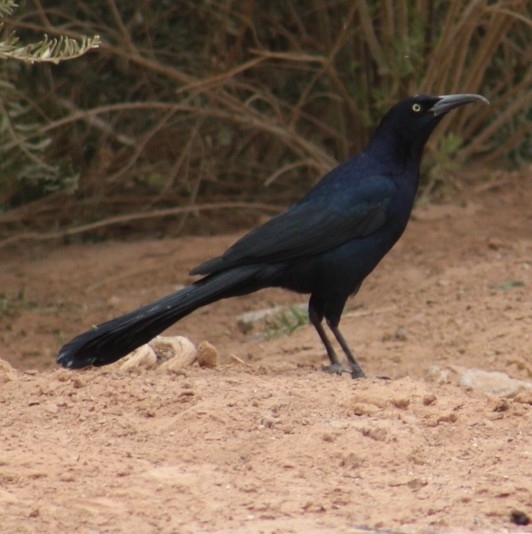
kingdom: Animalia
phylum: Chordata
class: Aves
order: Passeriformes
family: Icteridae
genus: Quiscalus
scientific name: Quiscalus mexicanus
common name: Great-tailed grackle
